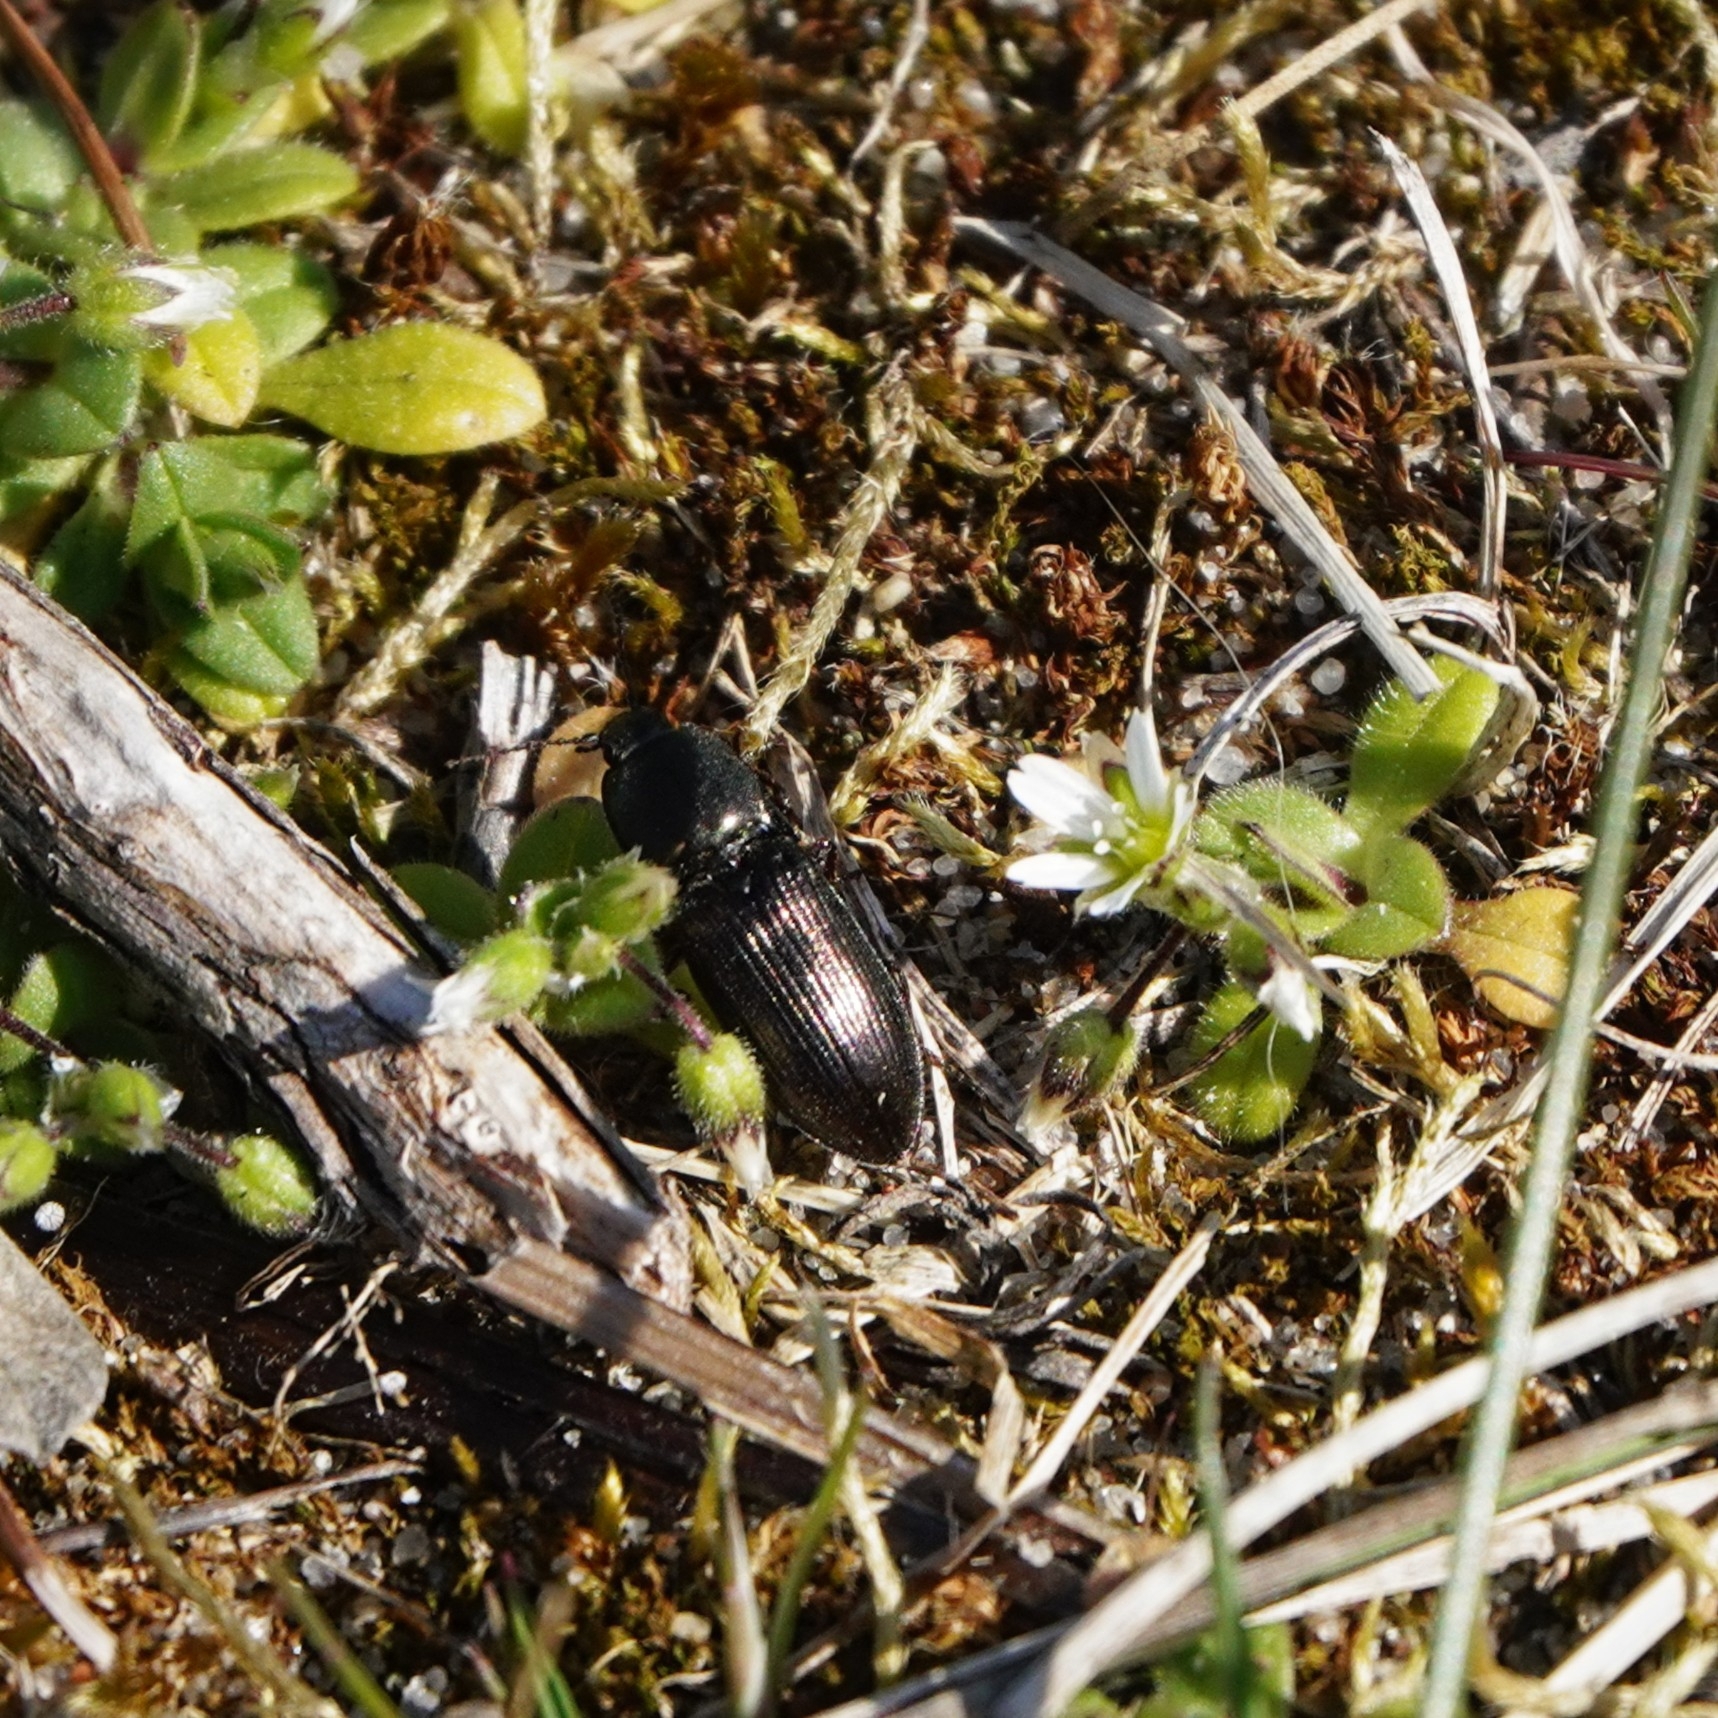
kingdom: Animalia
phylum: Arthropoda
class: Insecta
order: Coleoptera
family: Elateridae
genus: Selatosomus
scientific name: Selatosomus aeneus
